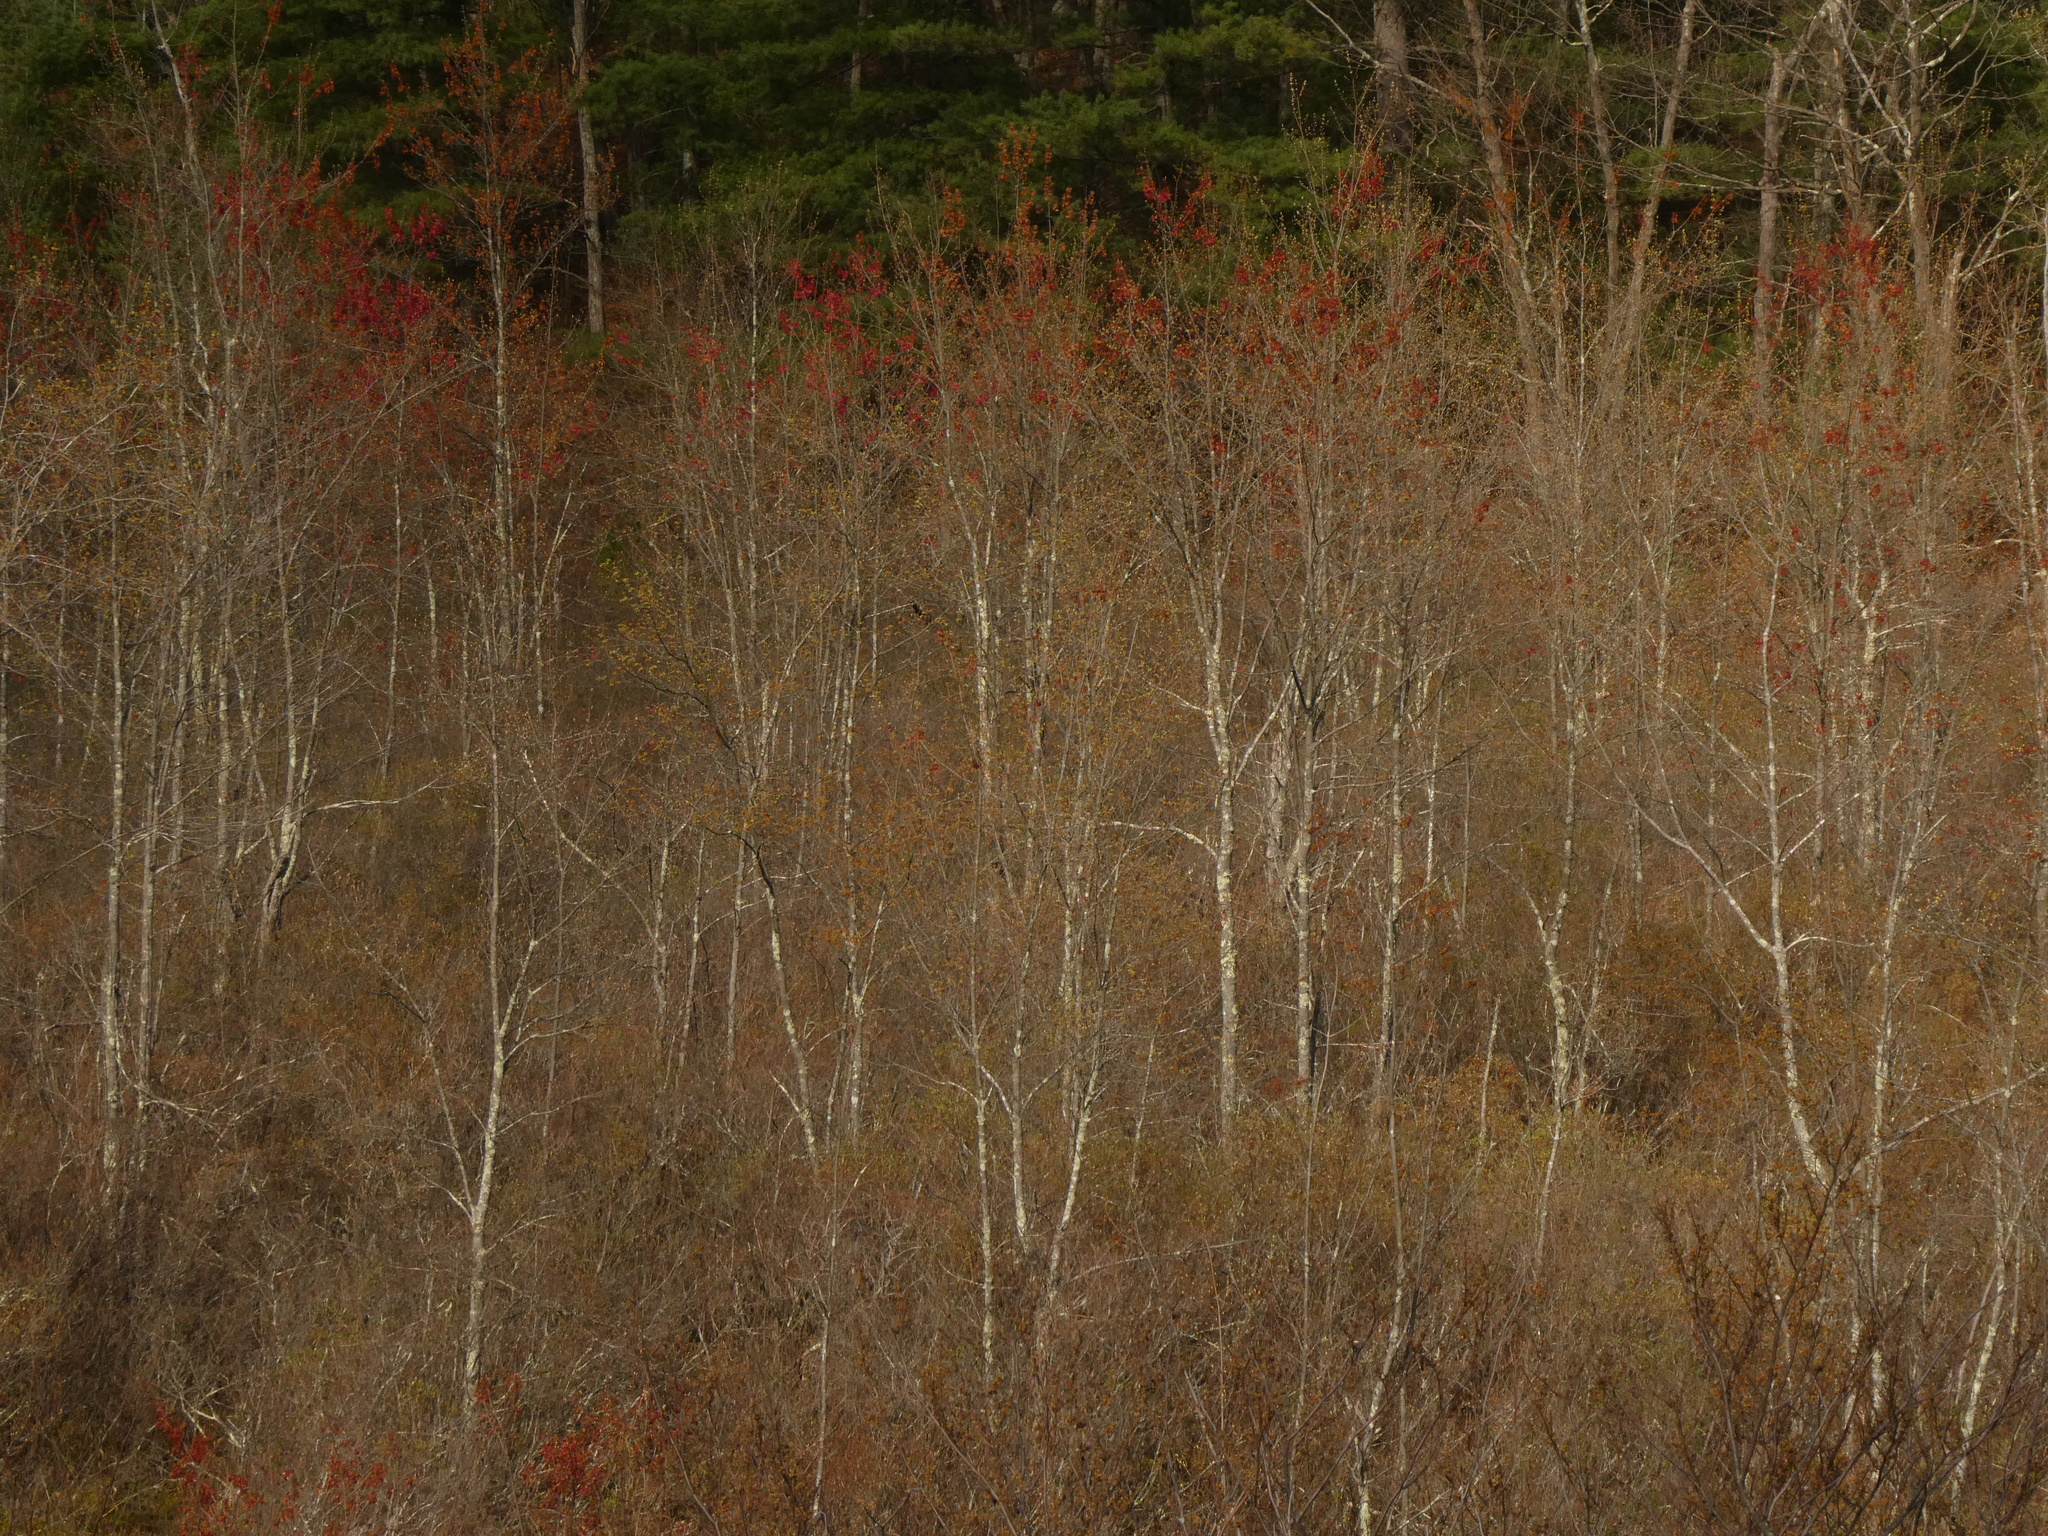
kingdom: Plantae
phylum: Tracheophyta
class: Magnoliopsida
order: Sapindales
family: Sapindaceae
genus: Acer
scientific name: Acer rubrum
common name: Red maple
